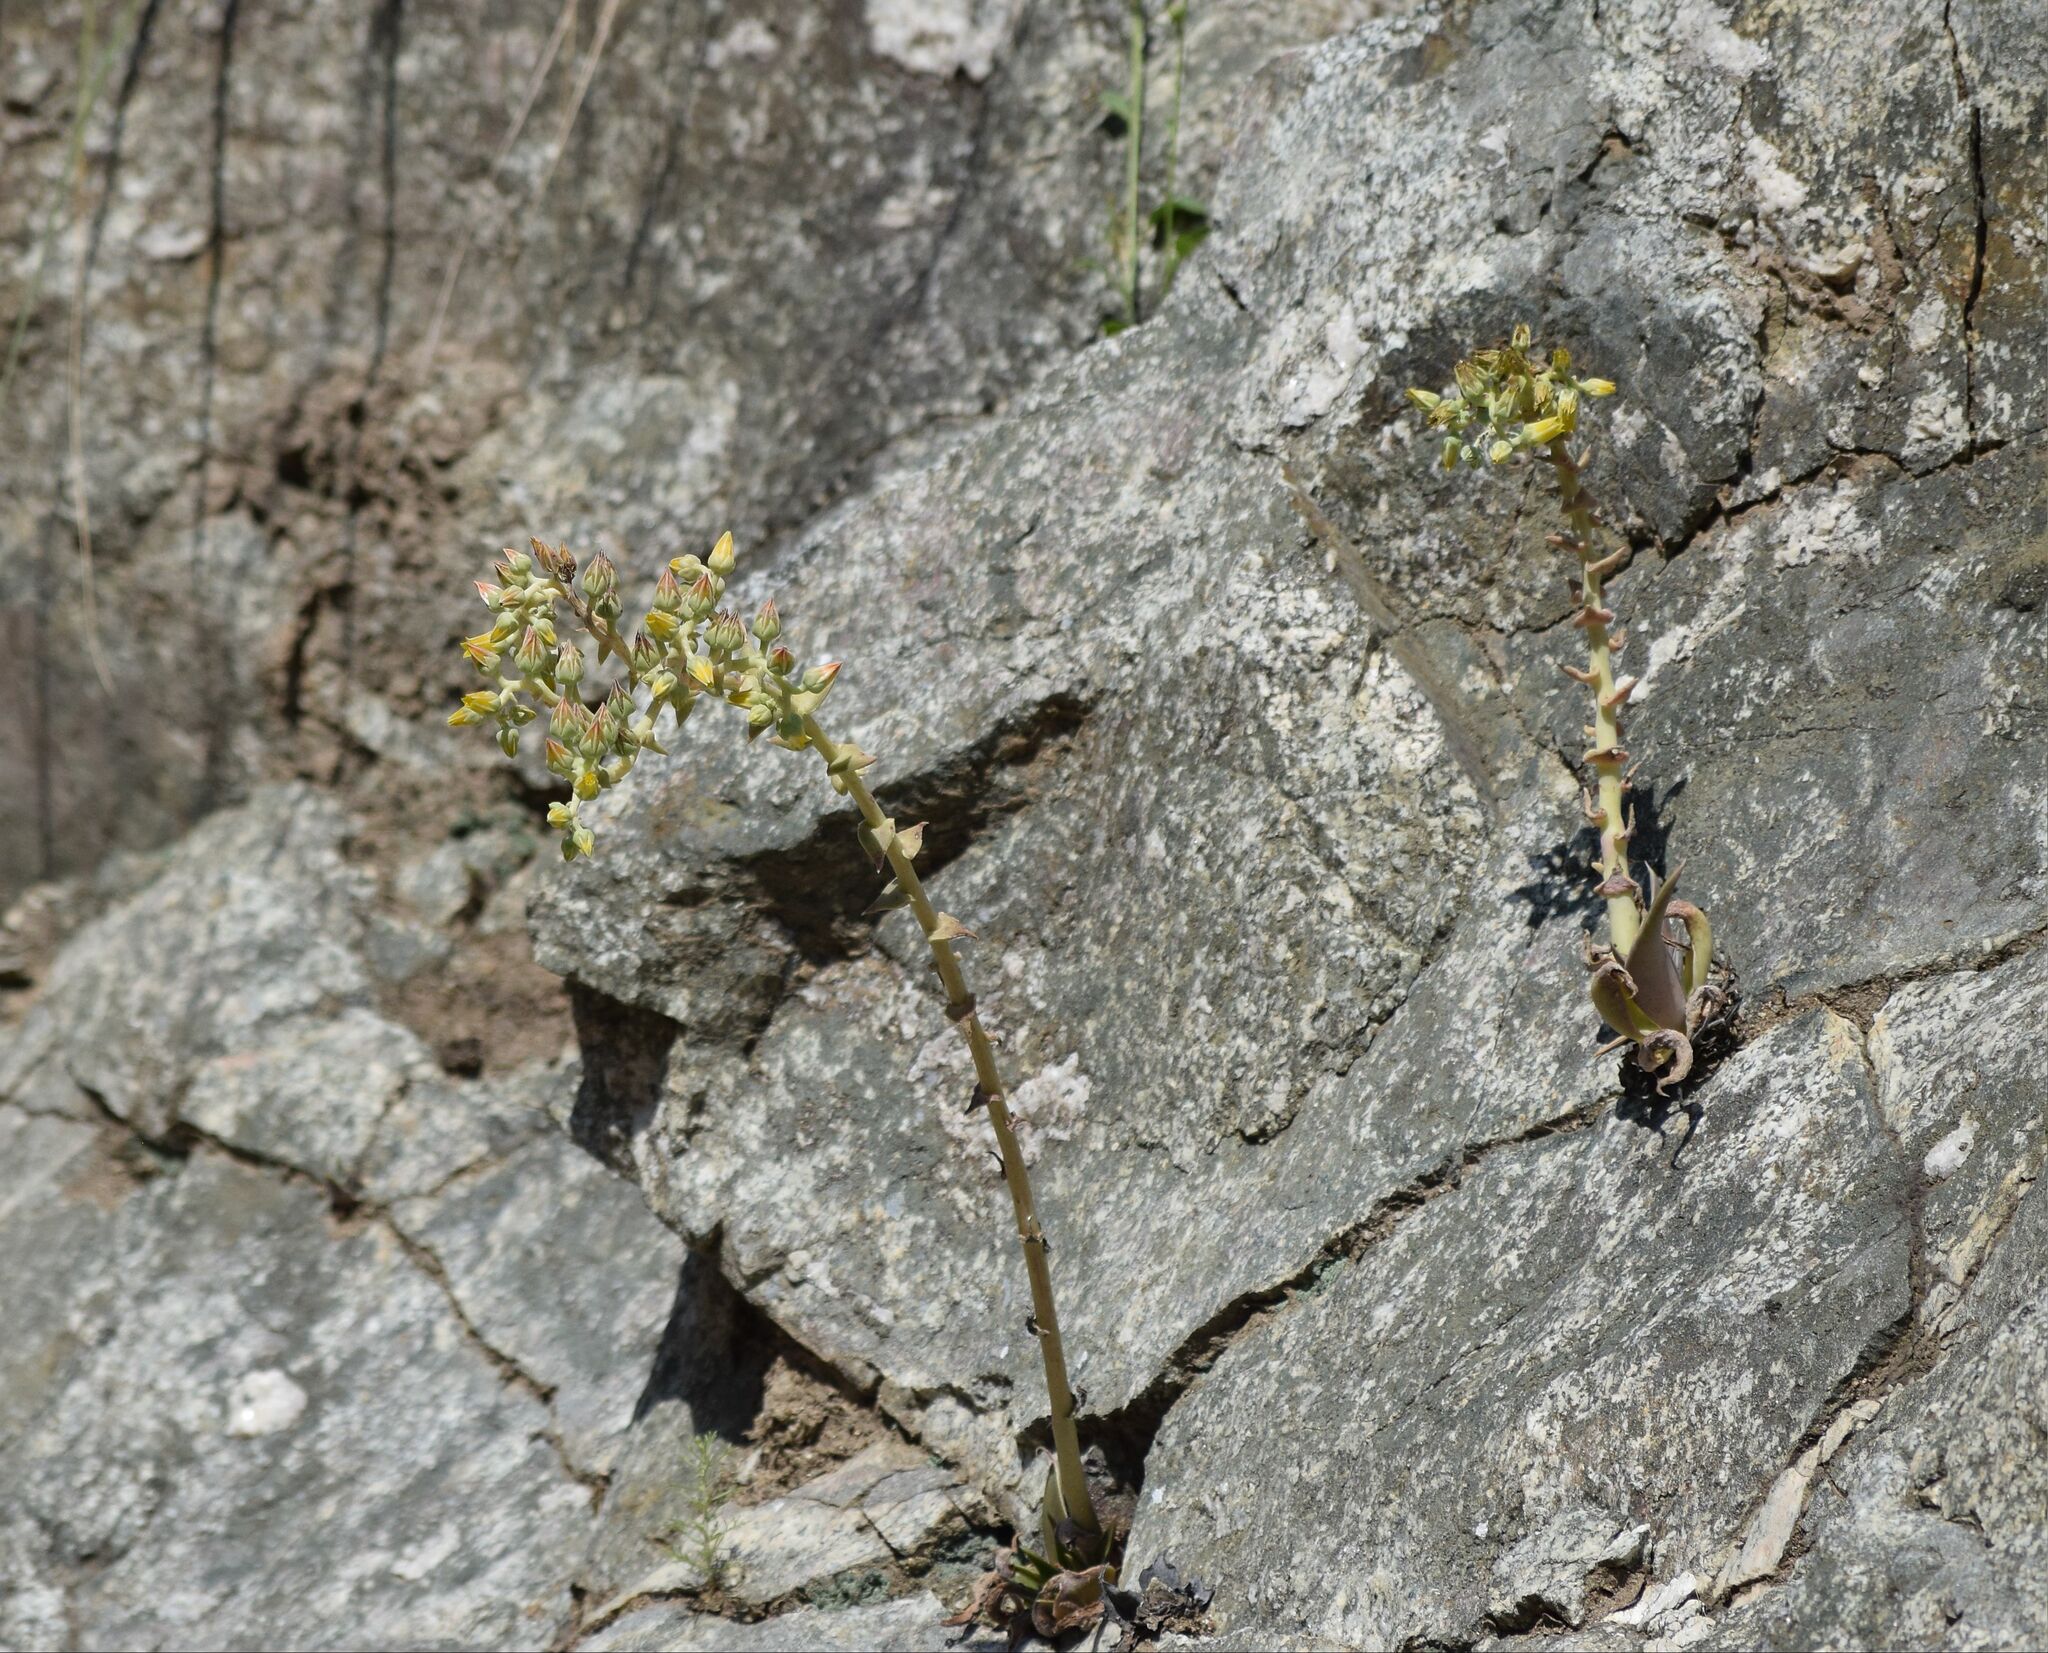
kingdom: Plantae
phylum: Tracheophyta
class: Magnoliopsida
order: Saxifragales
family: Crassulaceae
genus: Dudleya
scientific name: Dudleya lanceolata
